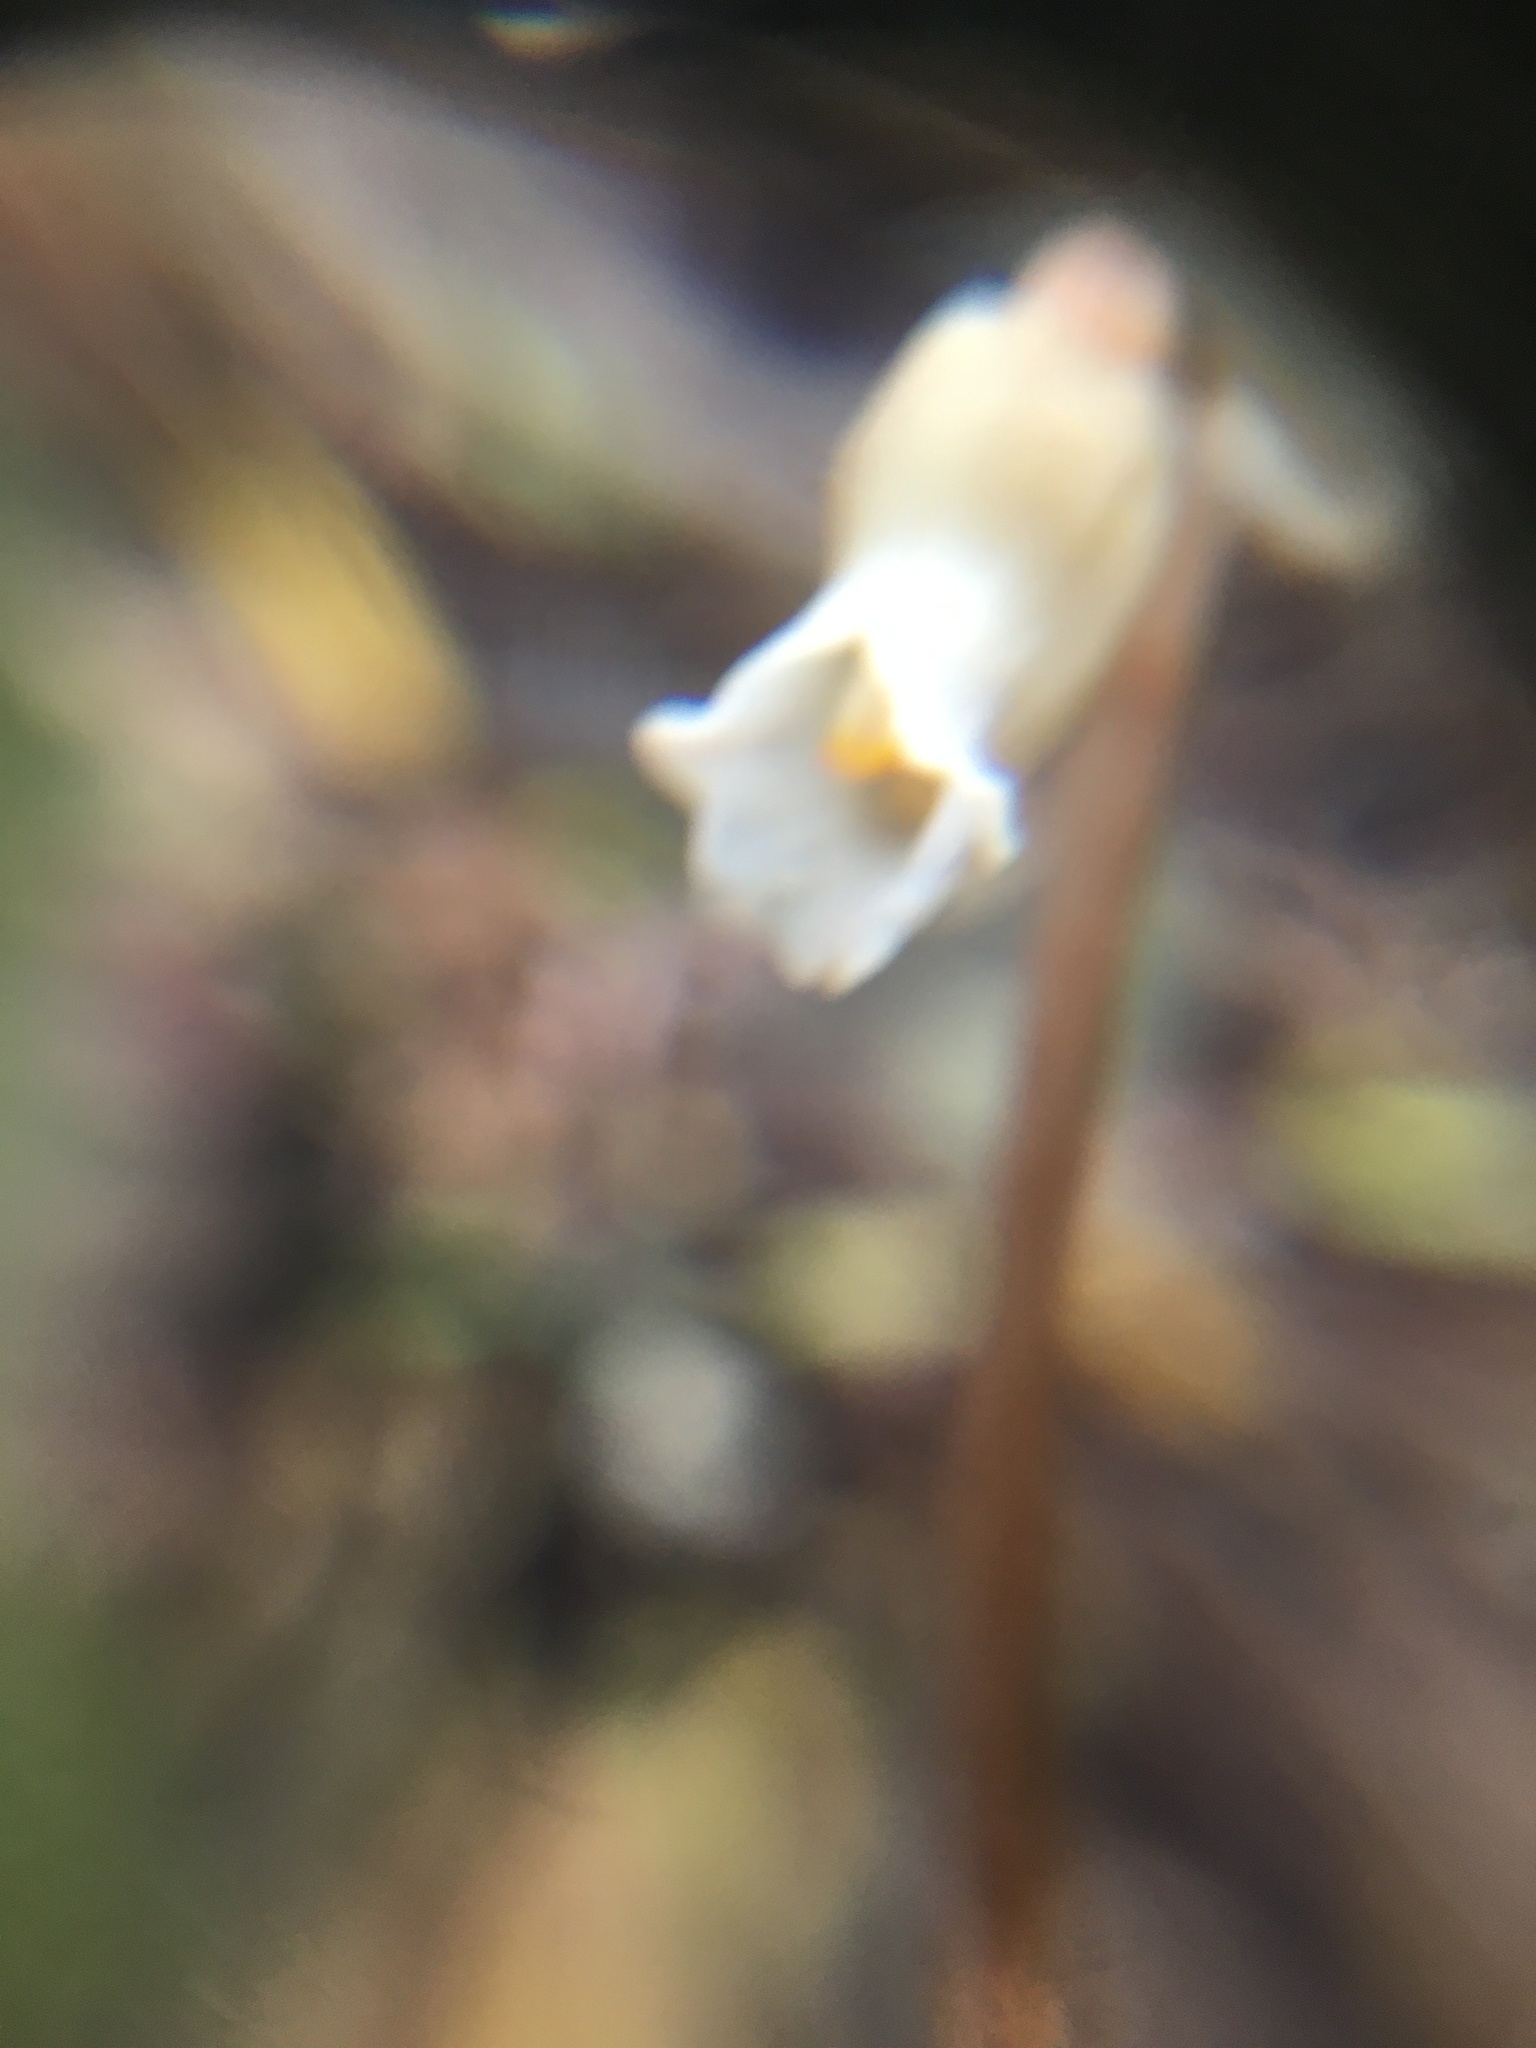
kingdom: Plantae
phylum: Tracheophyta
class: Liliopsida
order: Asparagales
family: Orchidaceae
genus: Gastrodia
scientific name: Gastrodia sesamoides
